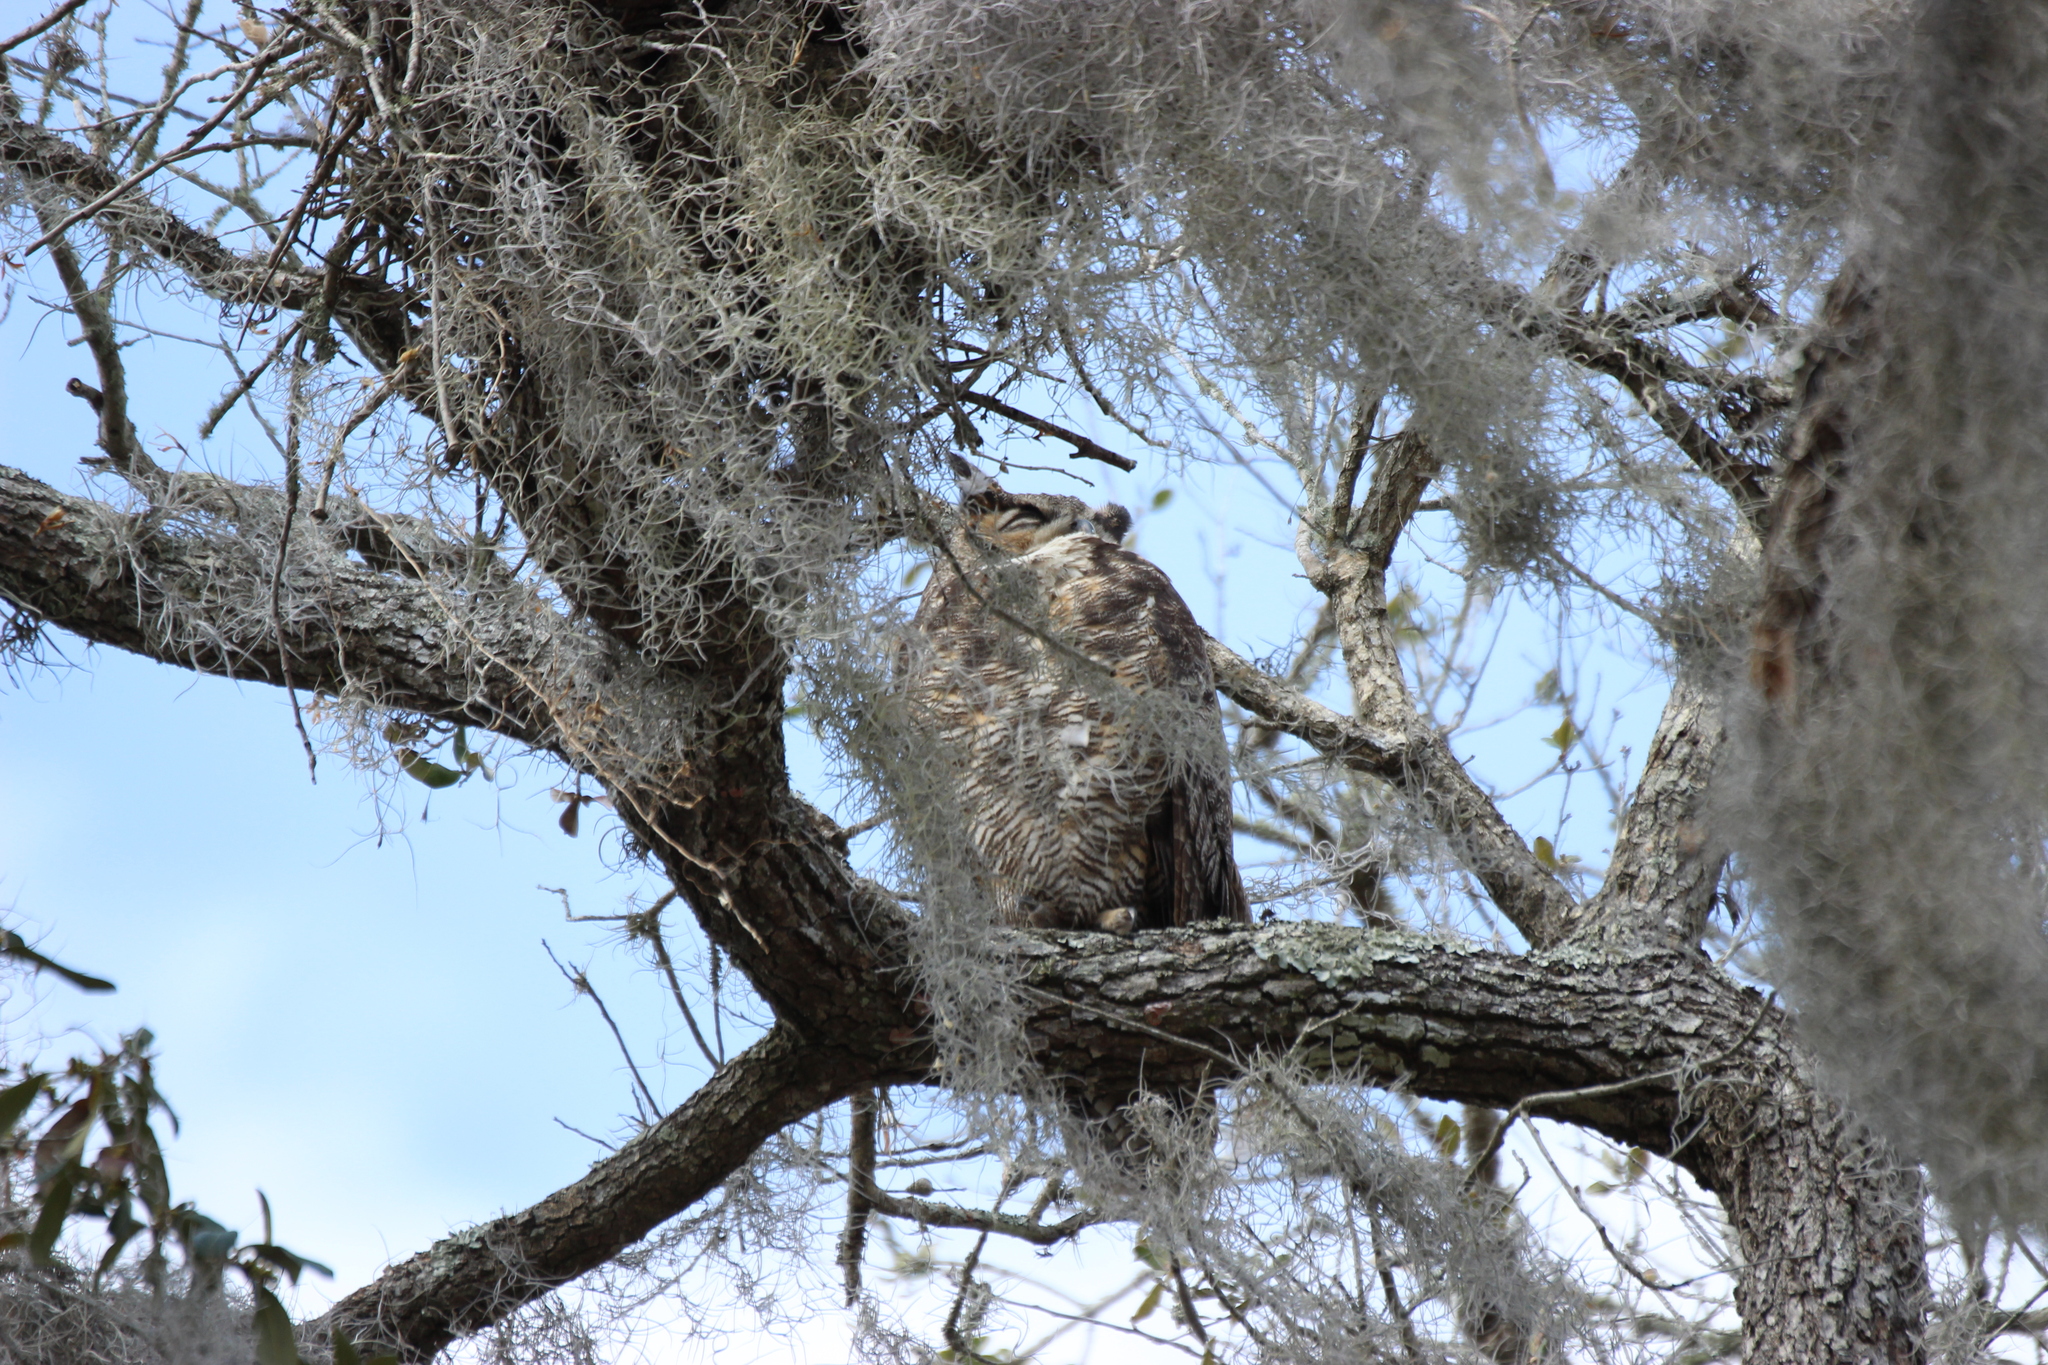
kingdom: Animalia
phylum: Chordata
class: Aves
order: Strigiformes
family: Strigidae
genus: Bubo
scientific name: Bubo virginianus
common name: Great horned owl
